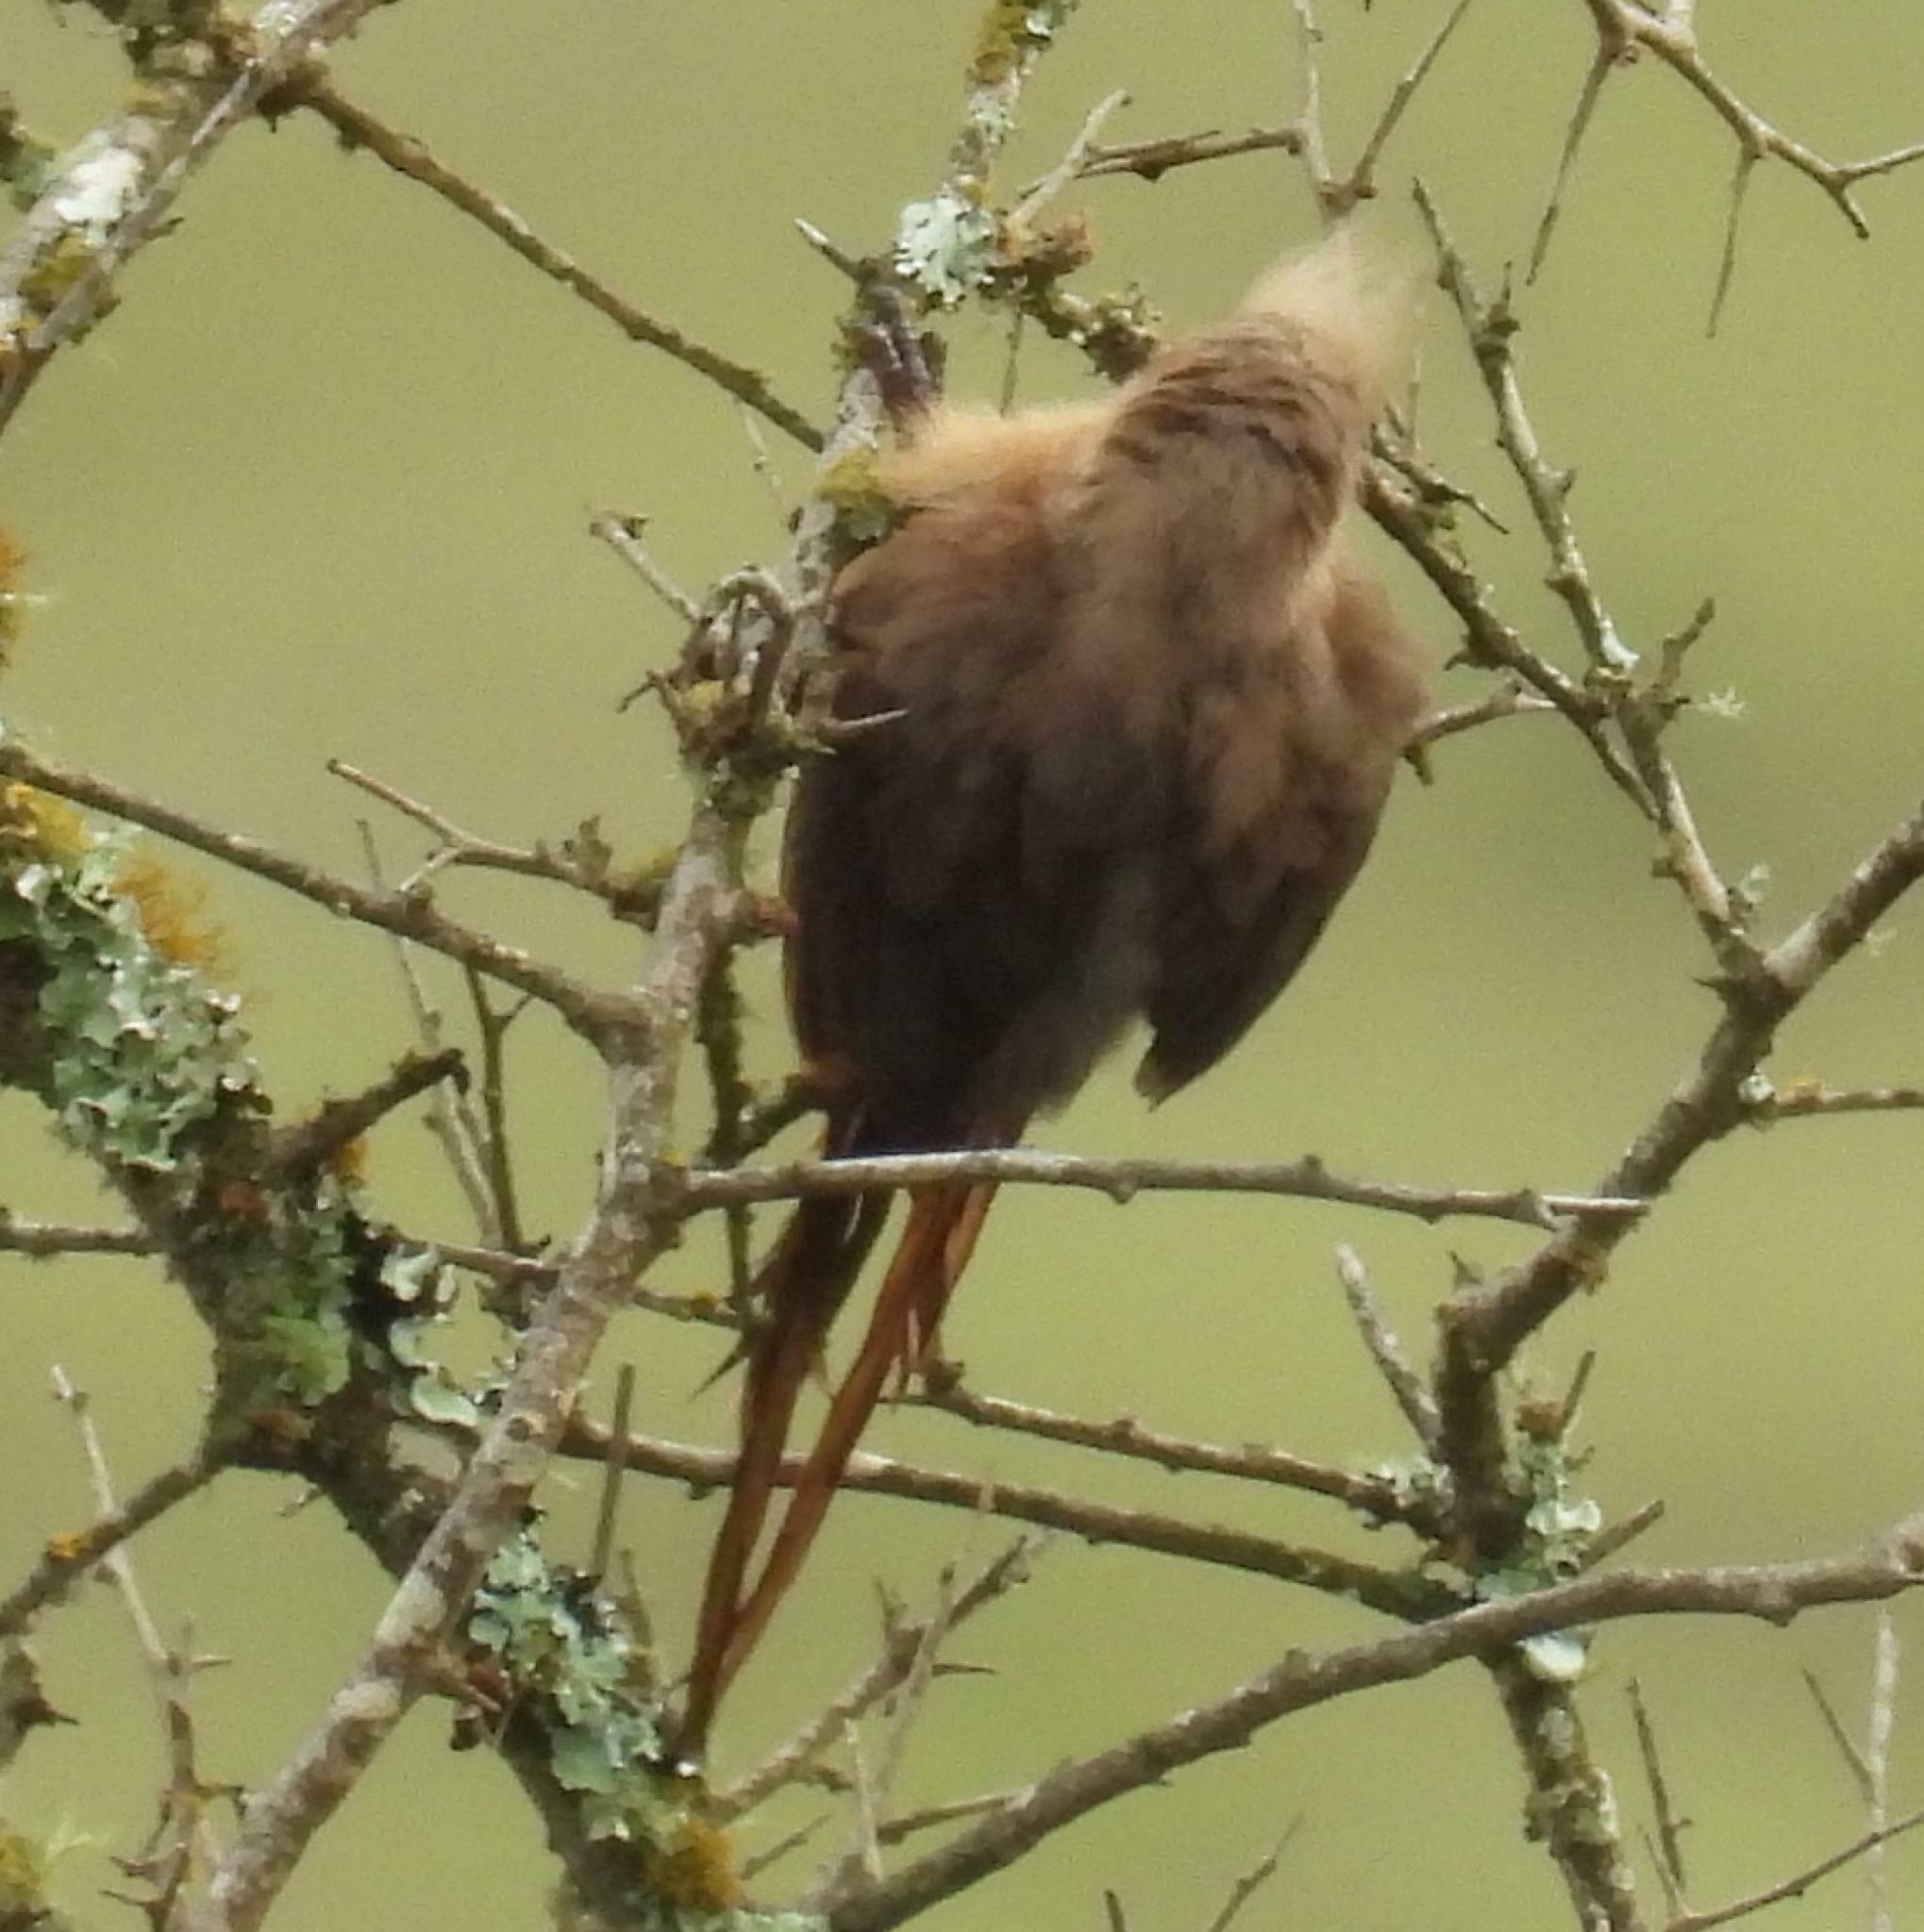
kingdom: Animalia
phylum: Chordata
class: Aves
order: Coliiformes
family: Coliidae
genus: Colius
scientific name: Colius striatus
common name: Speckled mousebird
